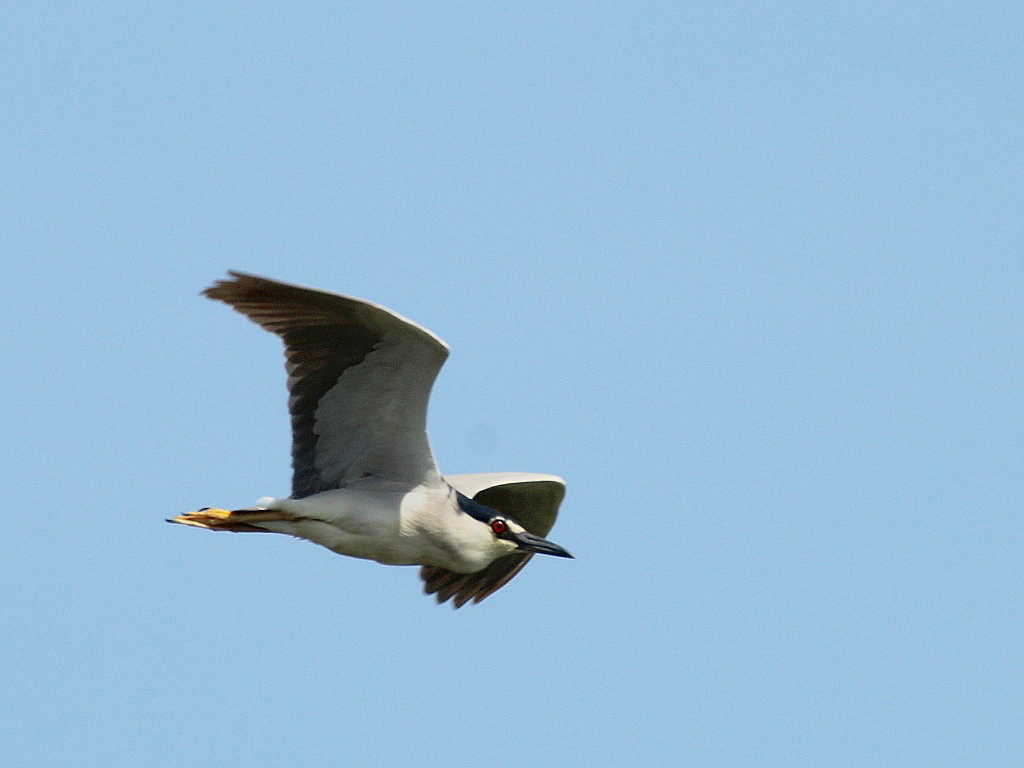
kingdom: Animalia
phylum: Chordata
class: Aves
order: Pelecaniformes
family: Ardeidae
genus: Nycticorax
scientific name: Nycticorax nycticorax
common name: Black-crowned night heron
